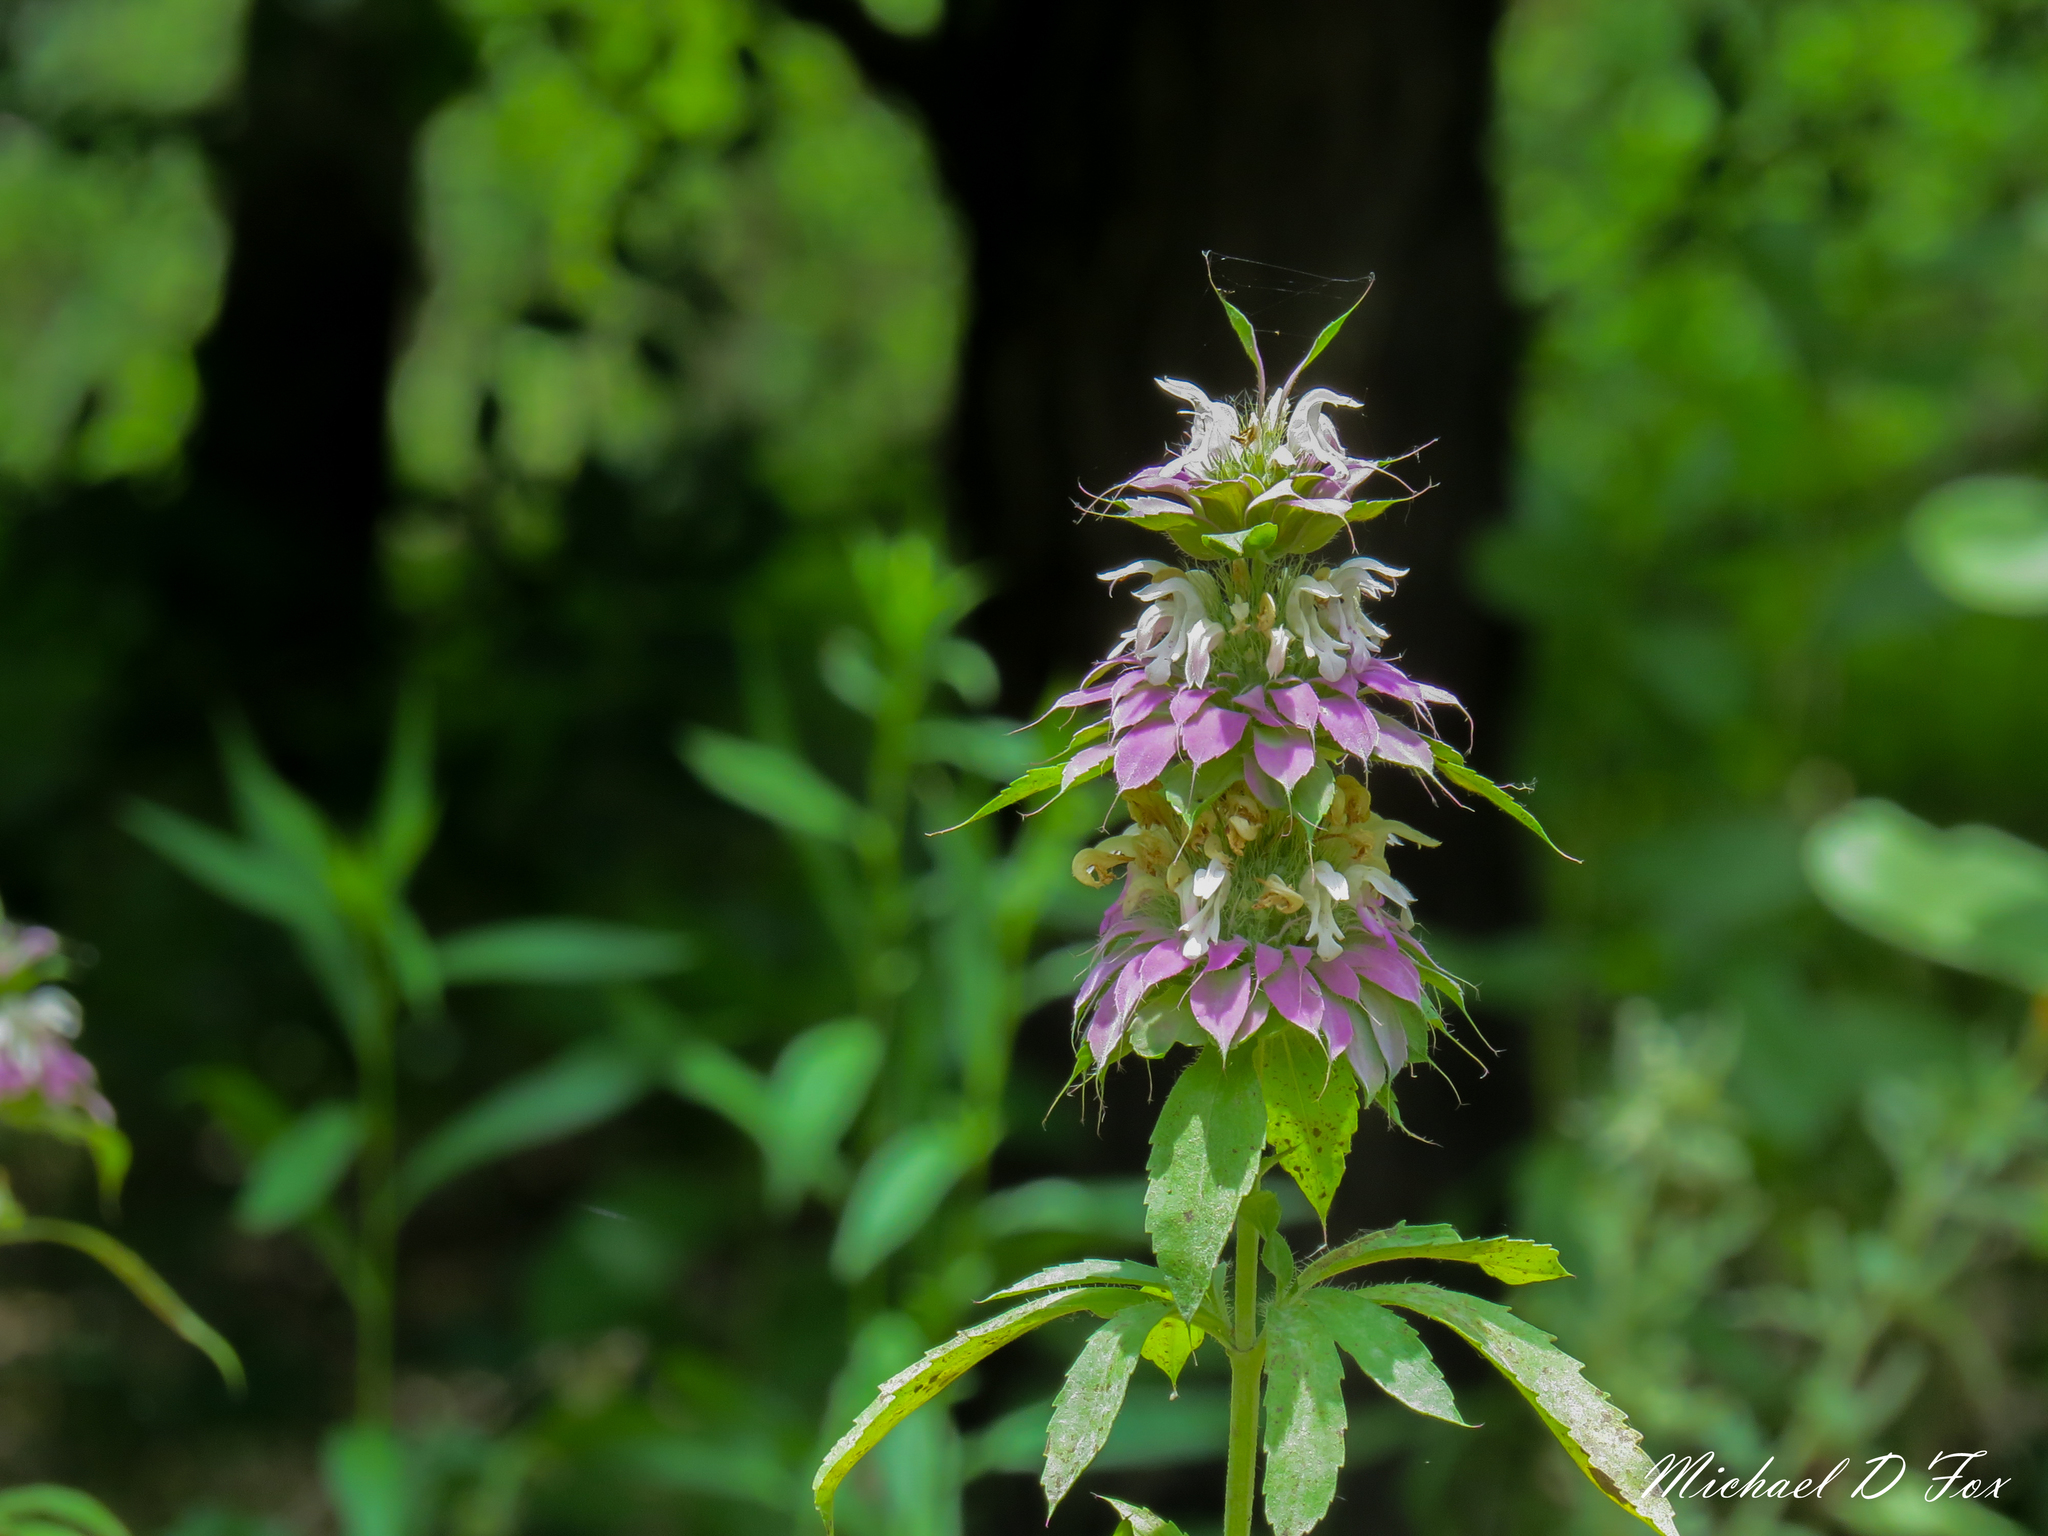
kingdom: Plantae
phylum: Tracheophyta
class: Magnoliopsida
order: Lamiales
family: Lamiaceae
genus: Monarda
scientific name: Monarda citriodora
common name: Lemon beebalm
